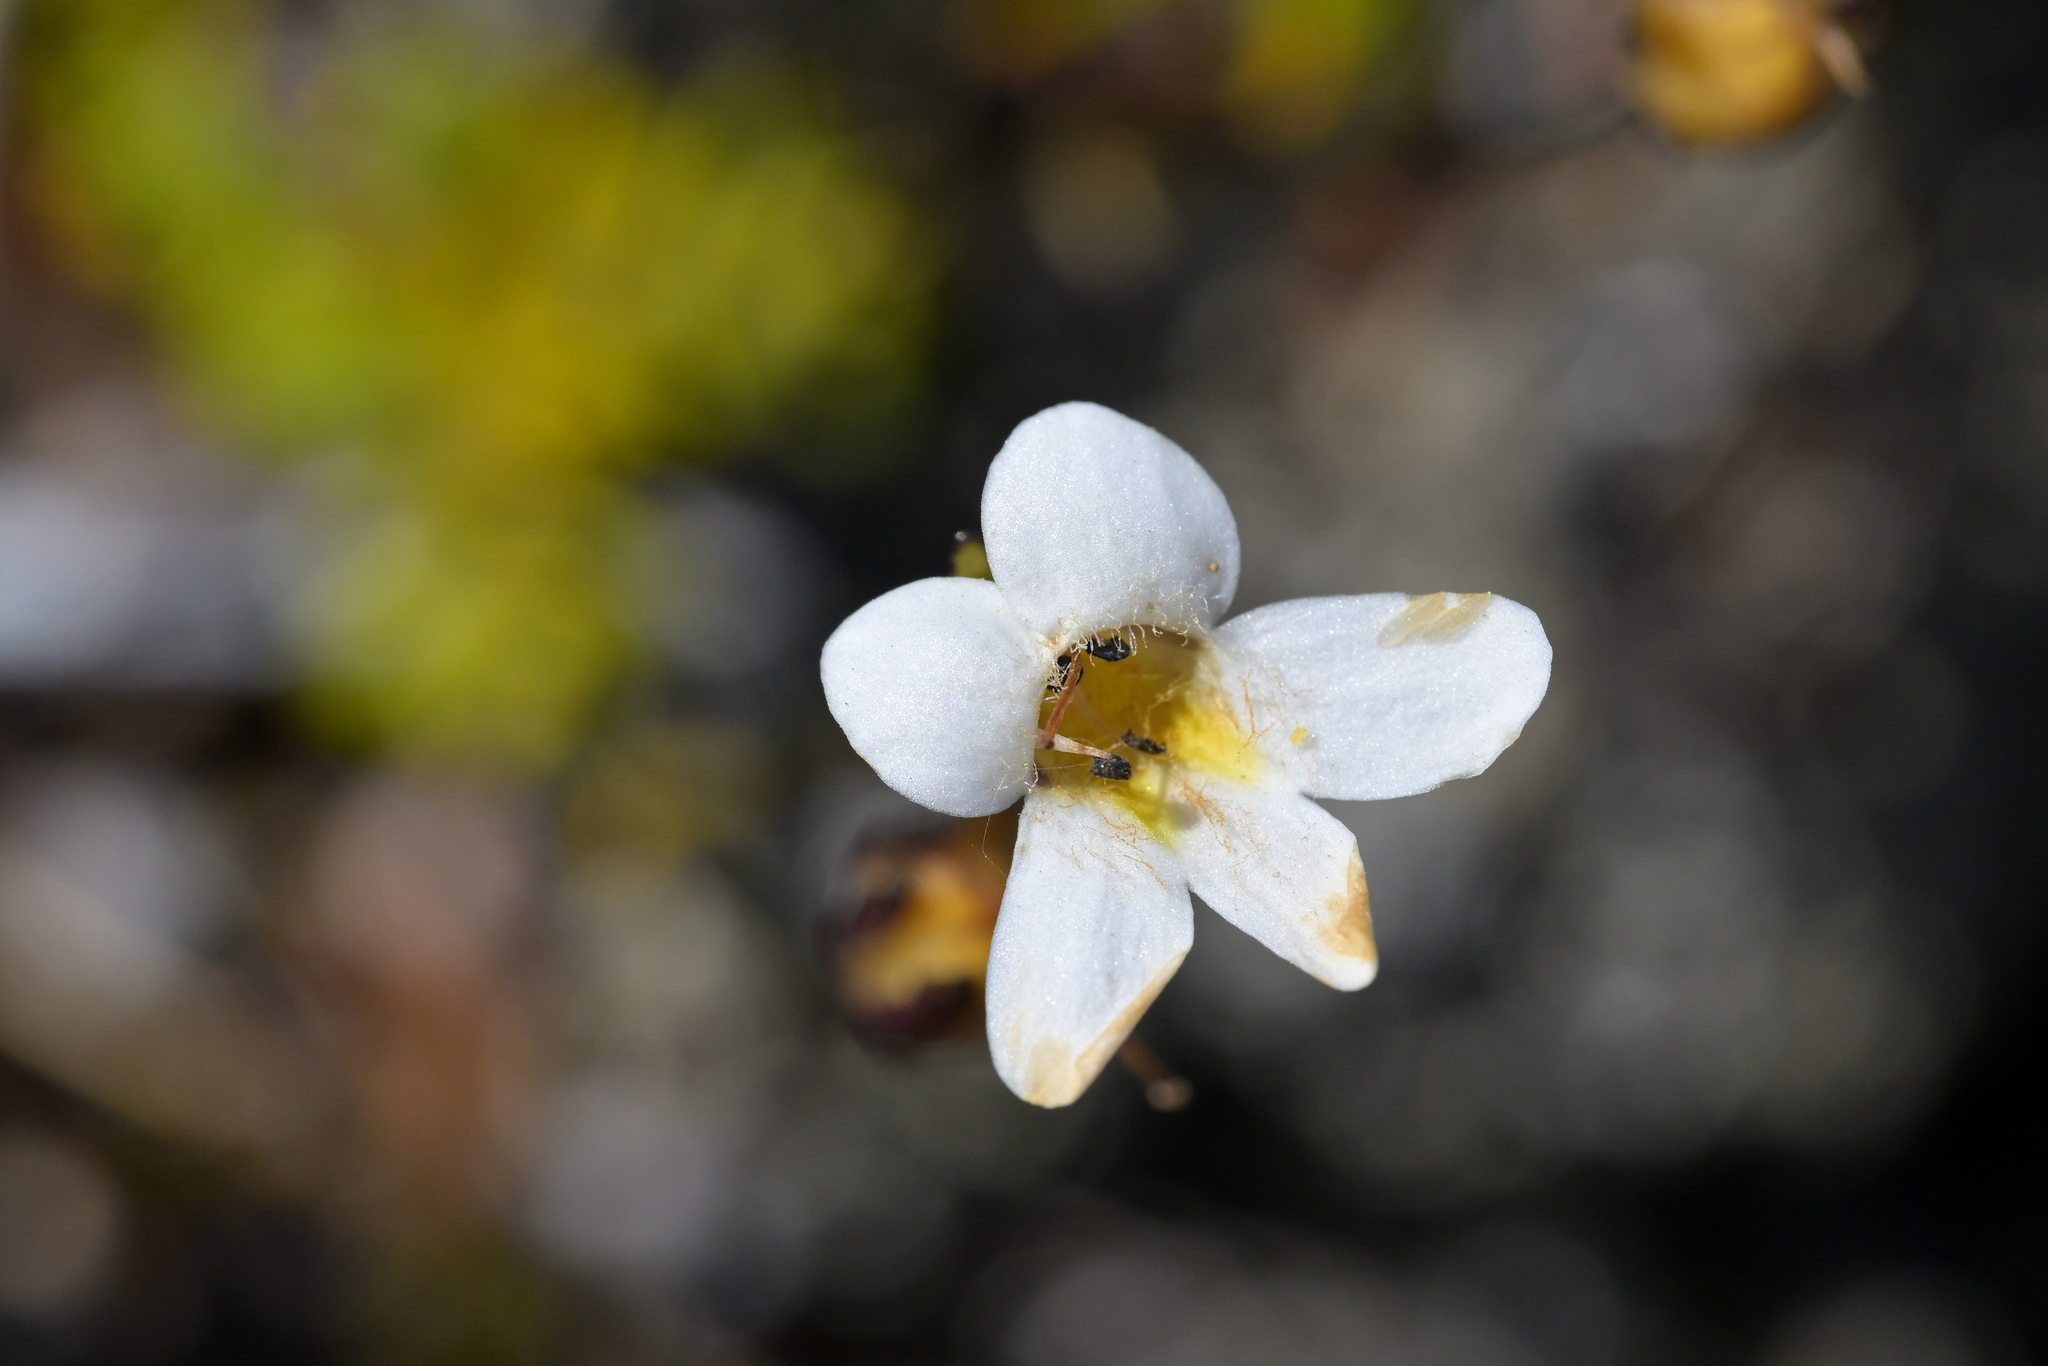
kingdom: Plantae
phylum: Tracheophyta
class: Magnoliopsida
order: Lamiales
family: Plantaginaceae
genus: Ourisia
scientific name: Ourisia caespitosa
